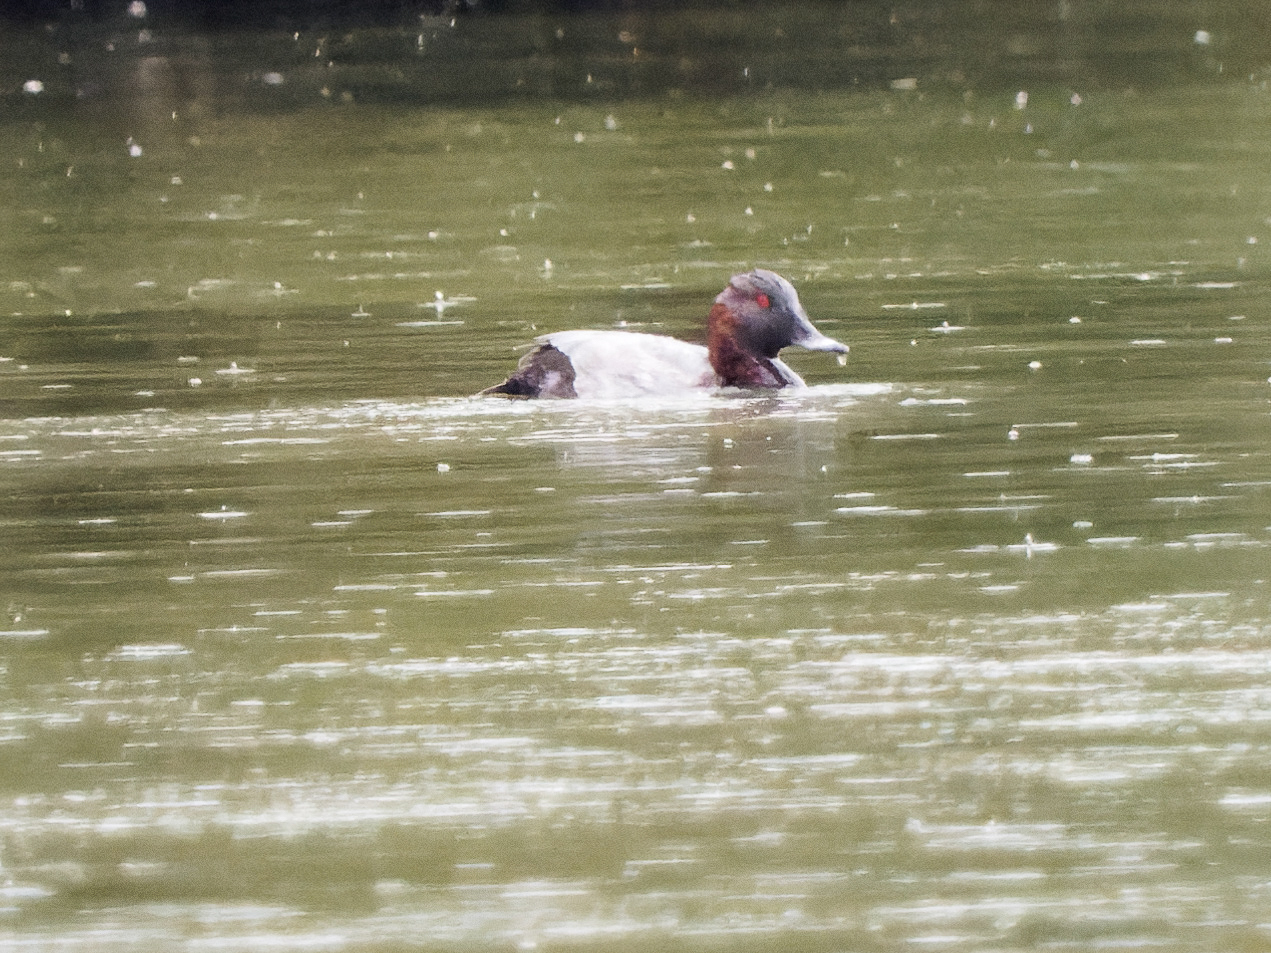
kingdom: Animalia
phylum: Chordata
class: Aves
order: Anseriformes
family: Anatidae
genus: Aythya
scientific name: Aythya ferina
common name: Common pochard
